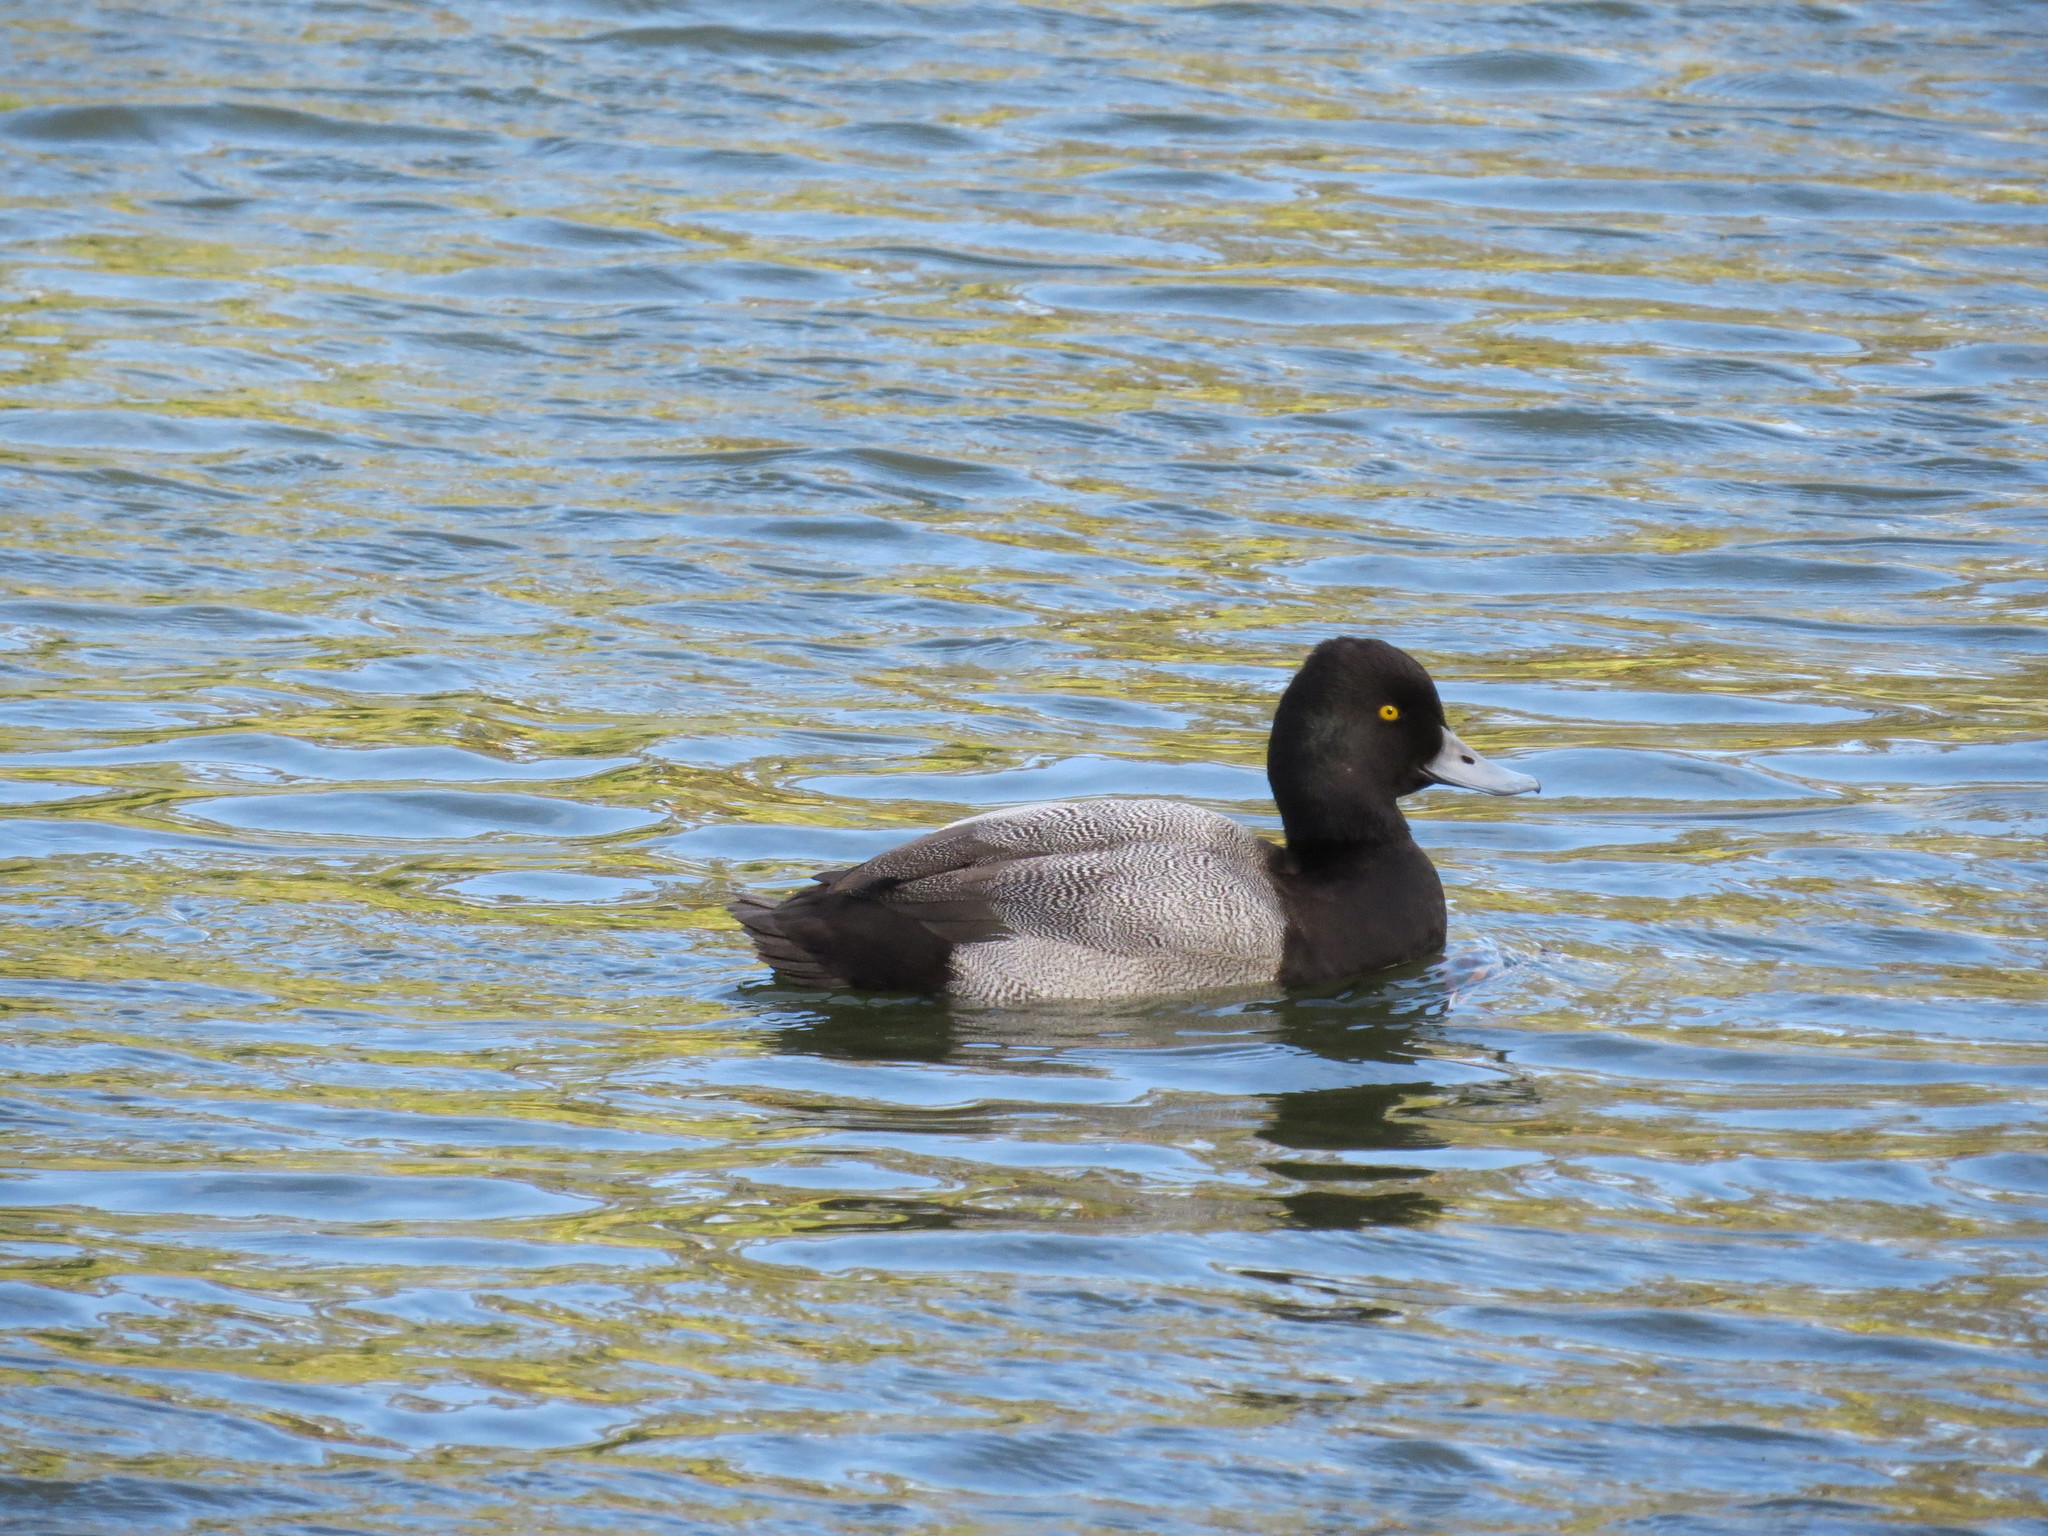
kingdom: Animalia
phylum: Chordata
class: Aves
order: Anseriformes
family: Anatidae
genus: Aythya
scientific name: Aythya affinis
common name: Lesser scaup
